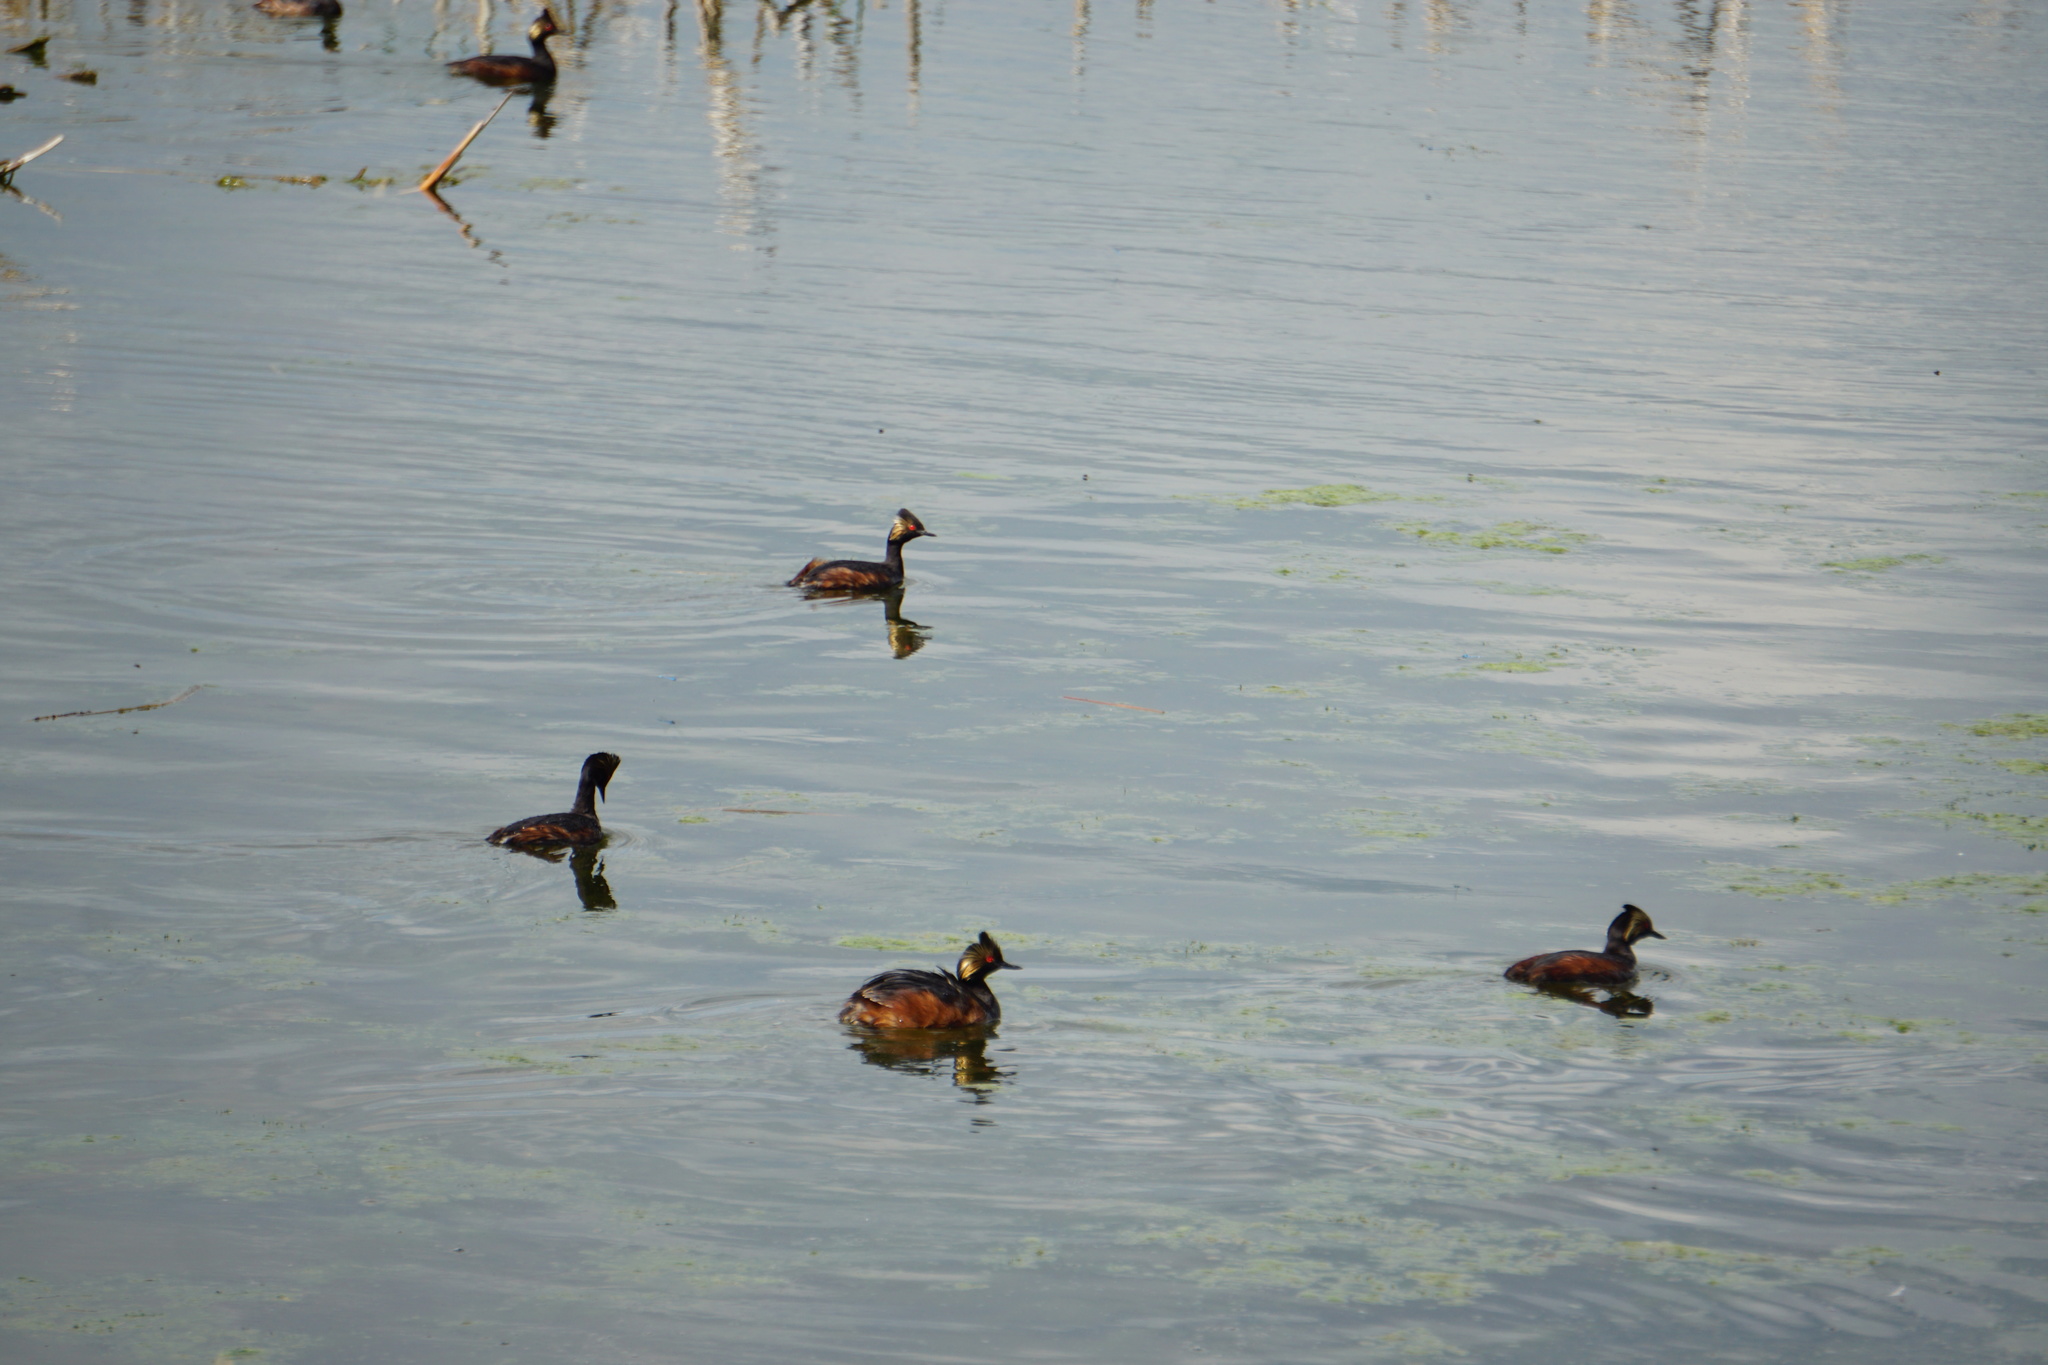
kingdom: Animalia
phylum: Chordata
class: Aves
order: Podicipediformes
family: Podicipedidae
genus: Podiceps
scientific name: Podiceps nigricollis
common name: Black-necked grebe
